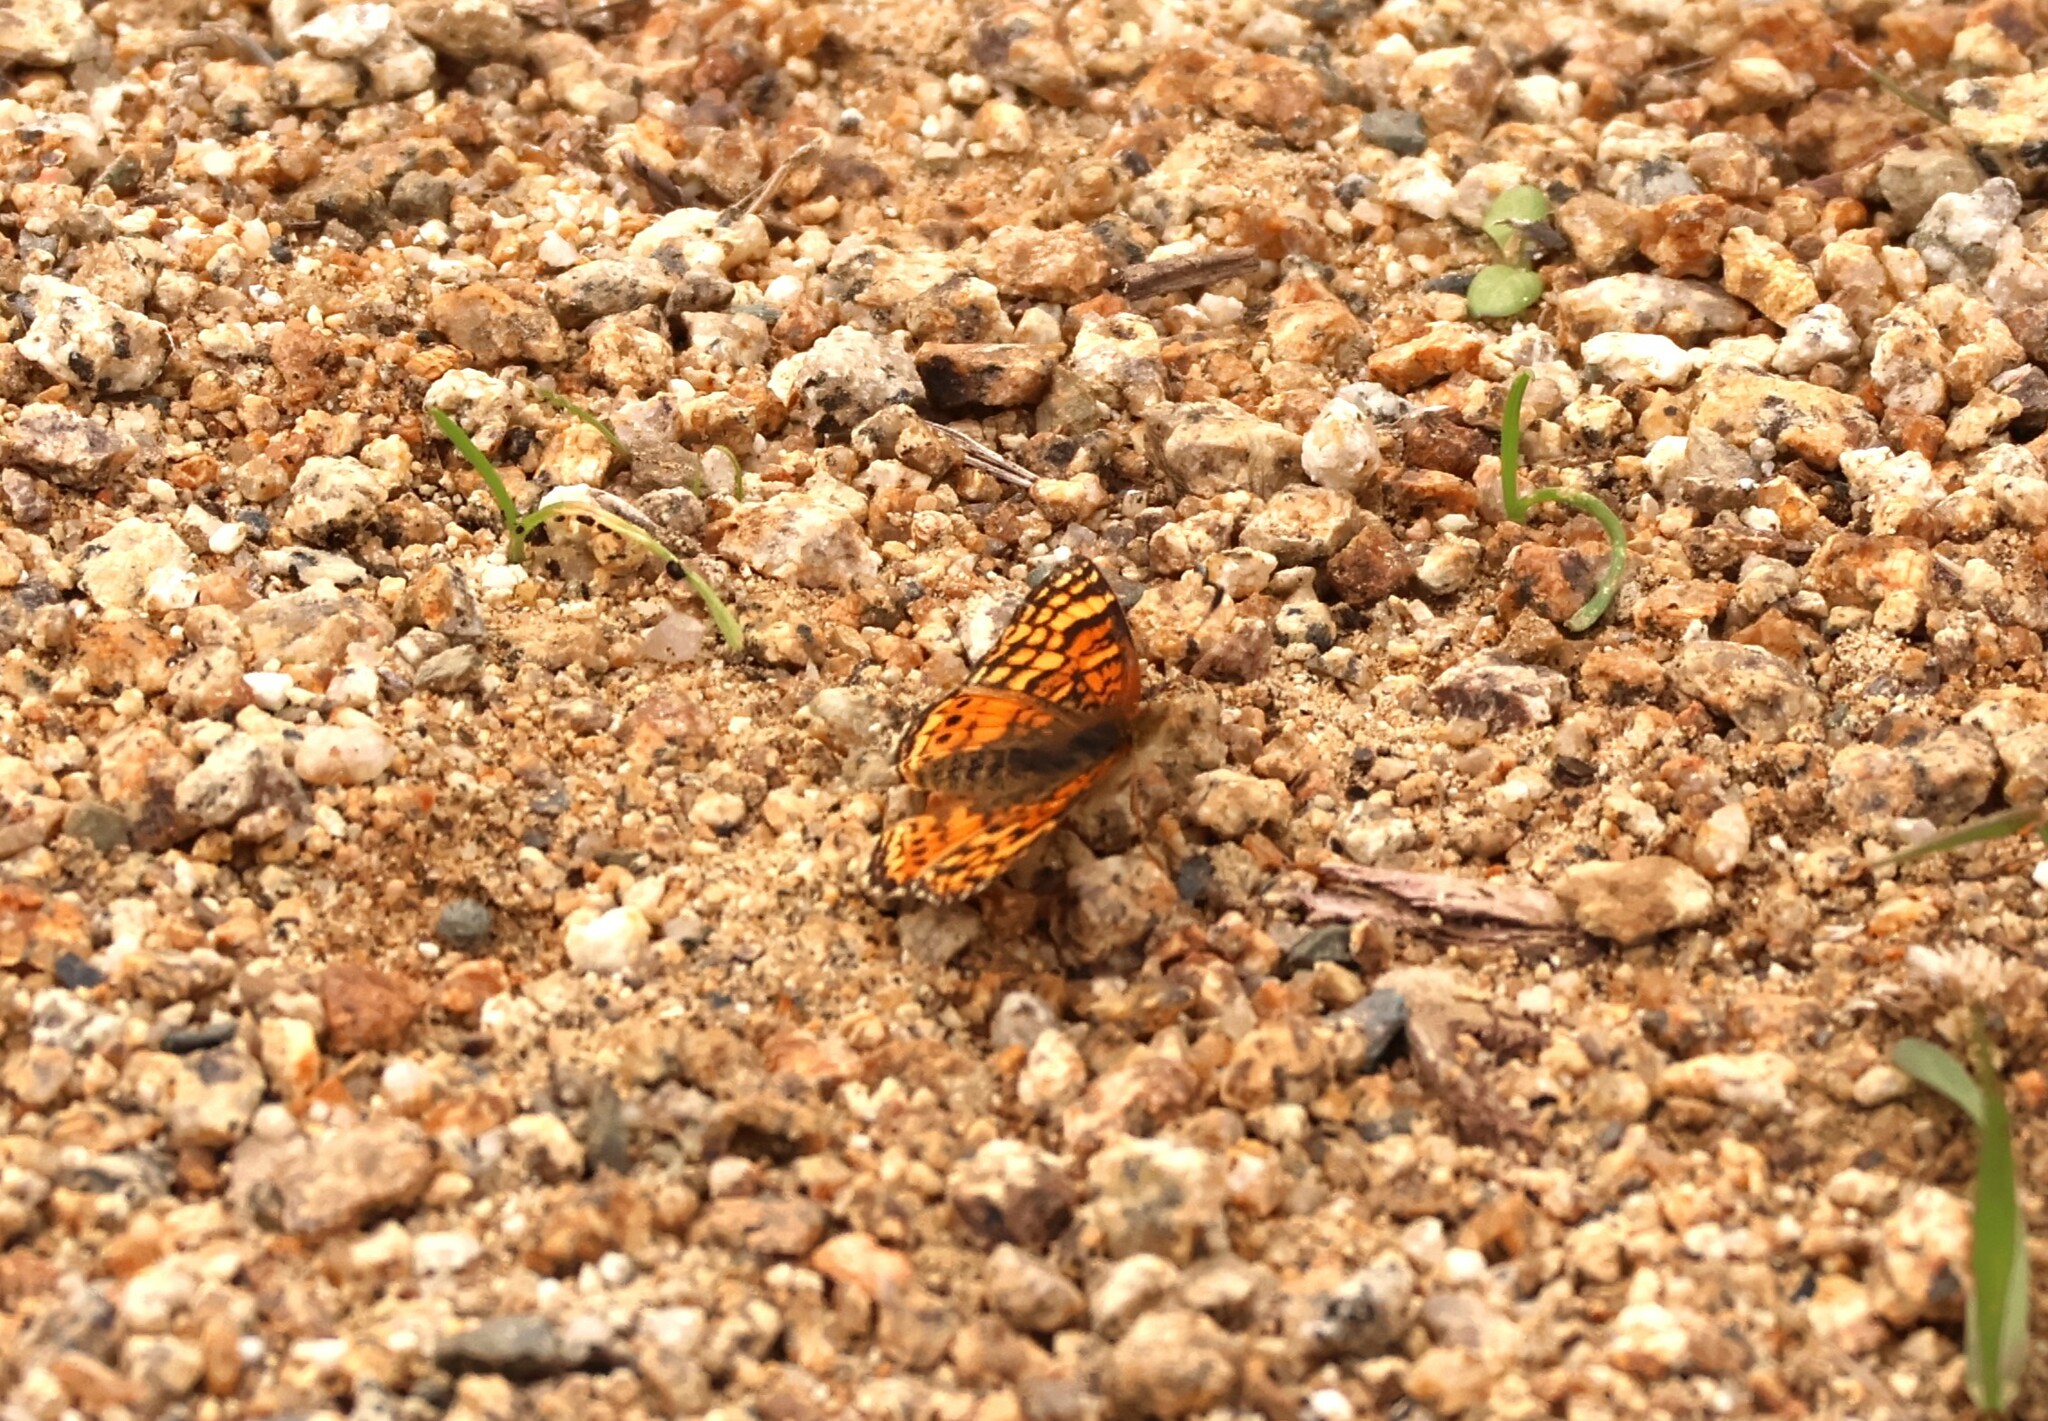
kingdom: Animalia
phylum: Arthropoda
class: Insecta
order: Lepidoptera
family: Nymphalidae
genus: Eresia
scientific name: Eresia aveyrona
